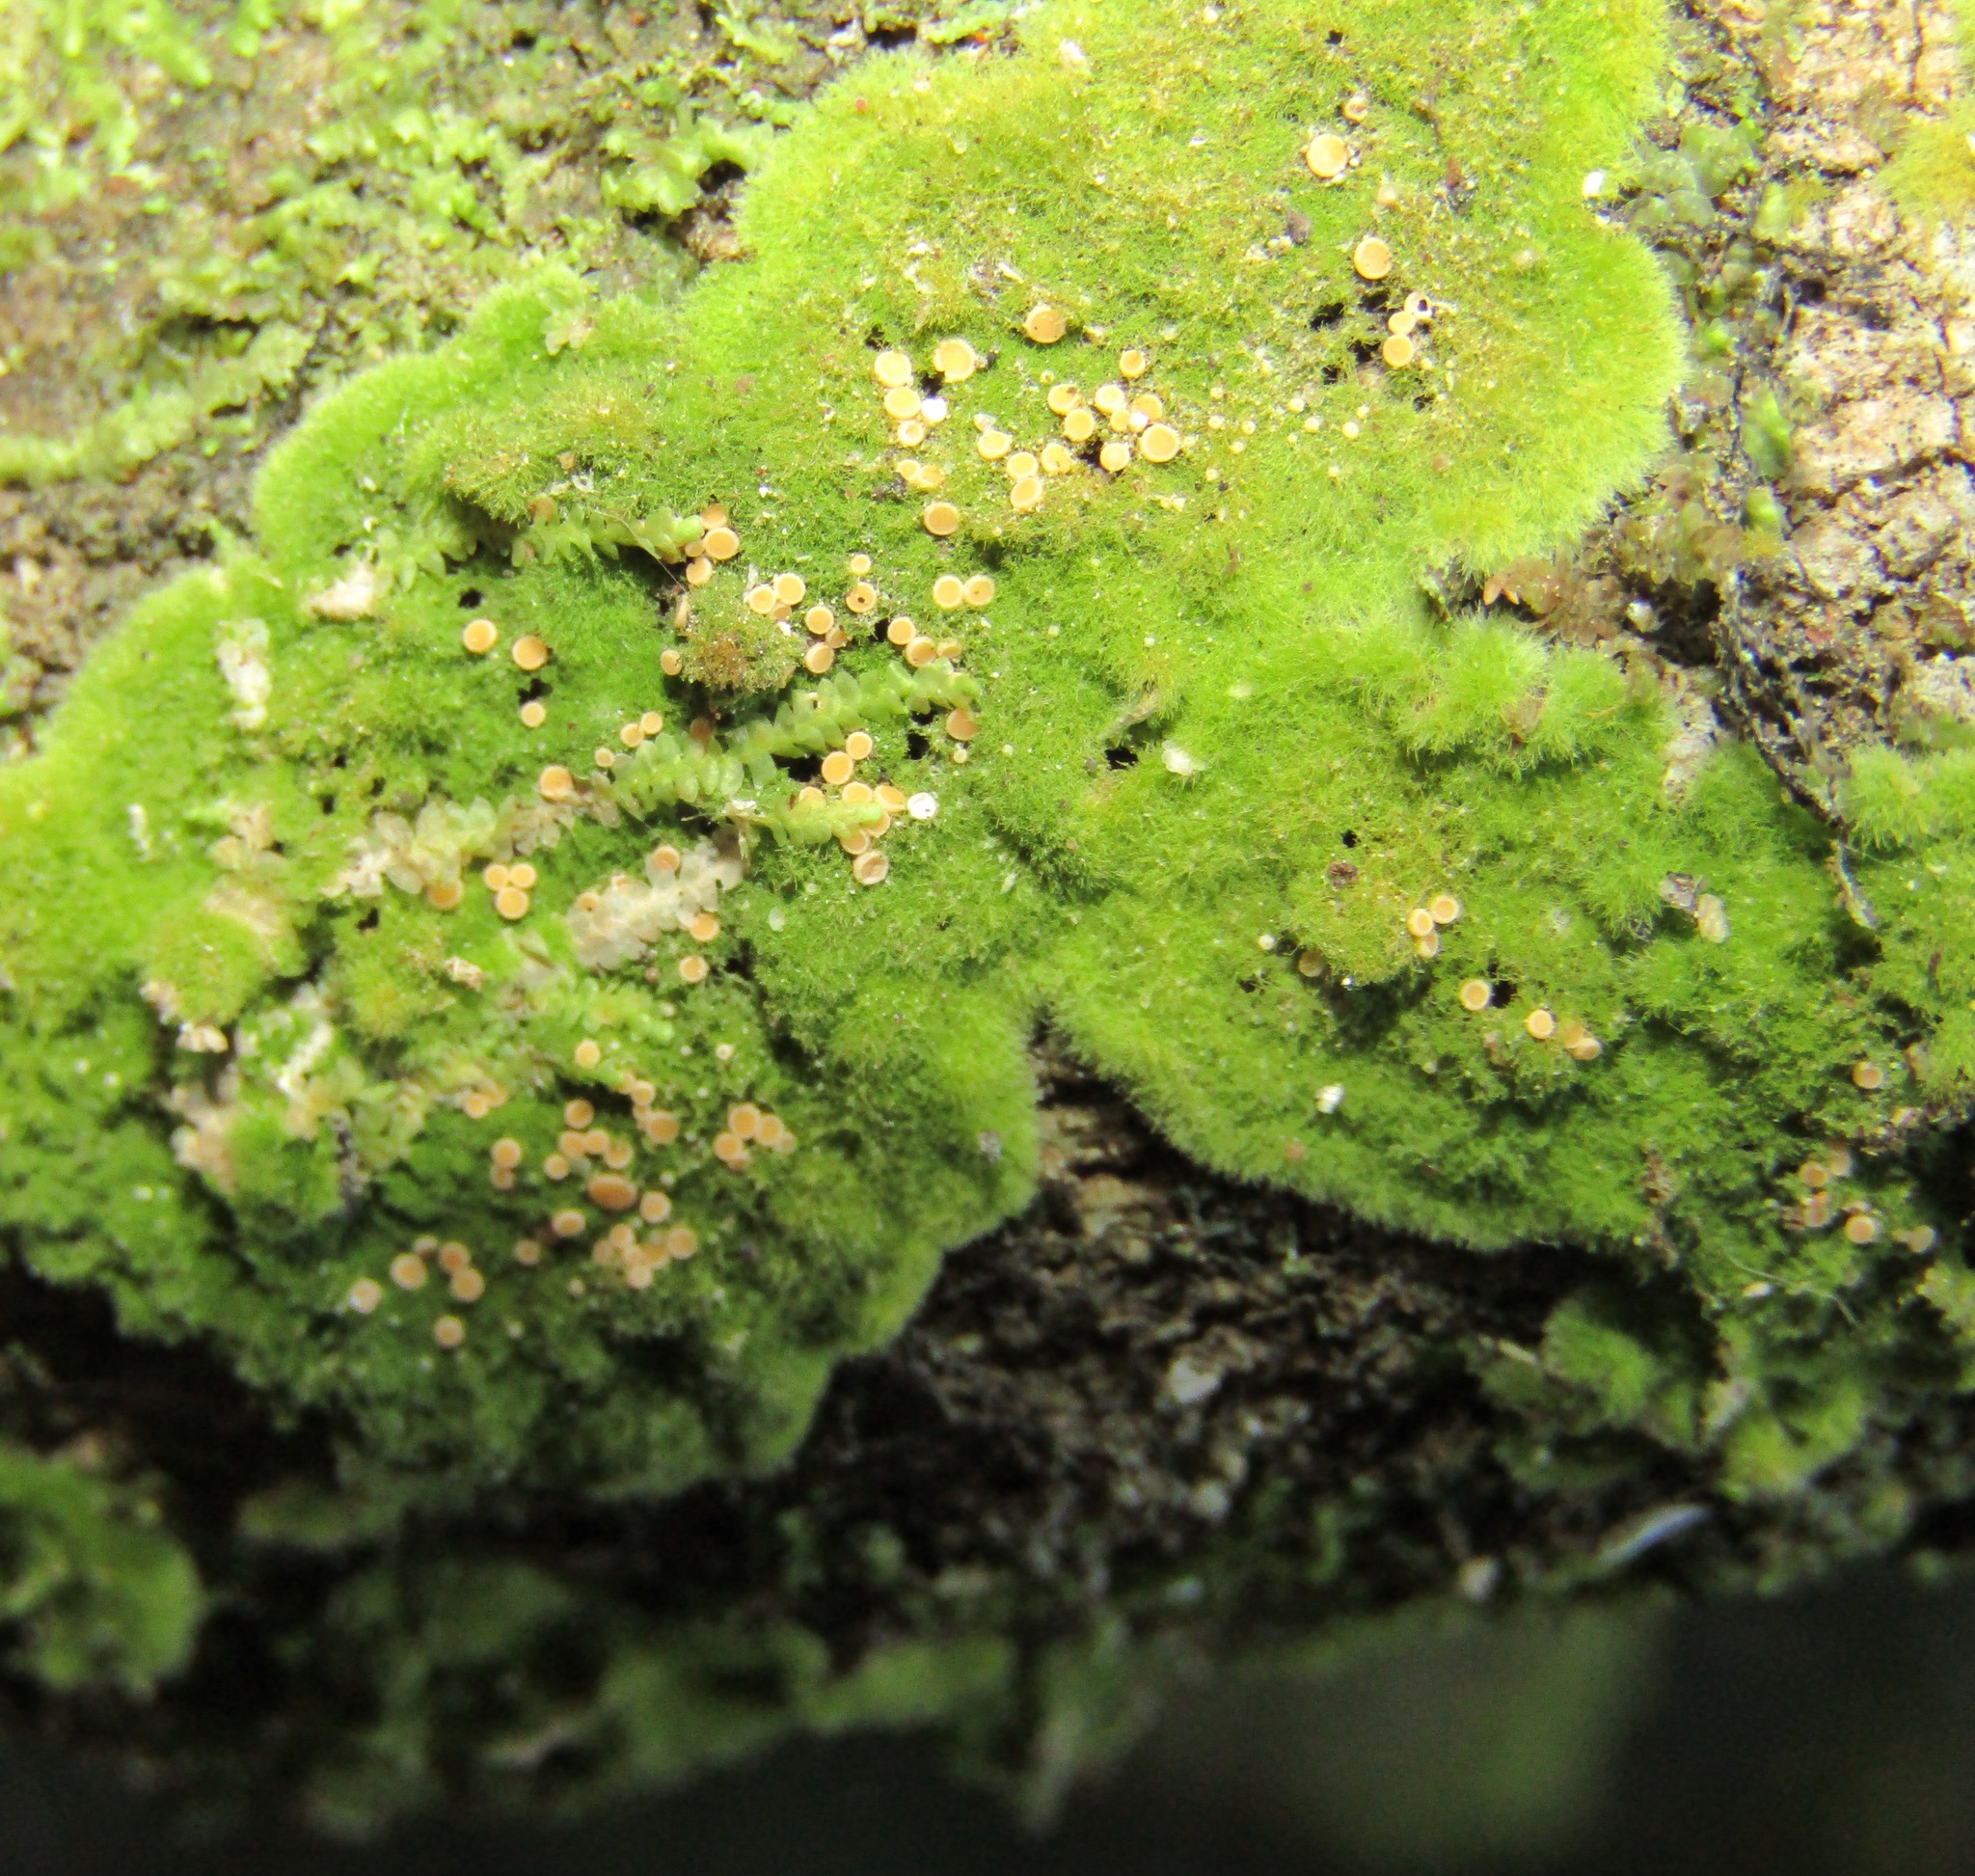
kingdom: Fungi
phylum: Ascomycota
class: Lecanoromycetes
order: Ostropales
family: Coenogoniaceae
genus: Coenogonium
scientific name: Coenogonium implexum
